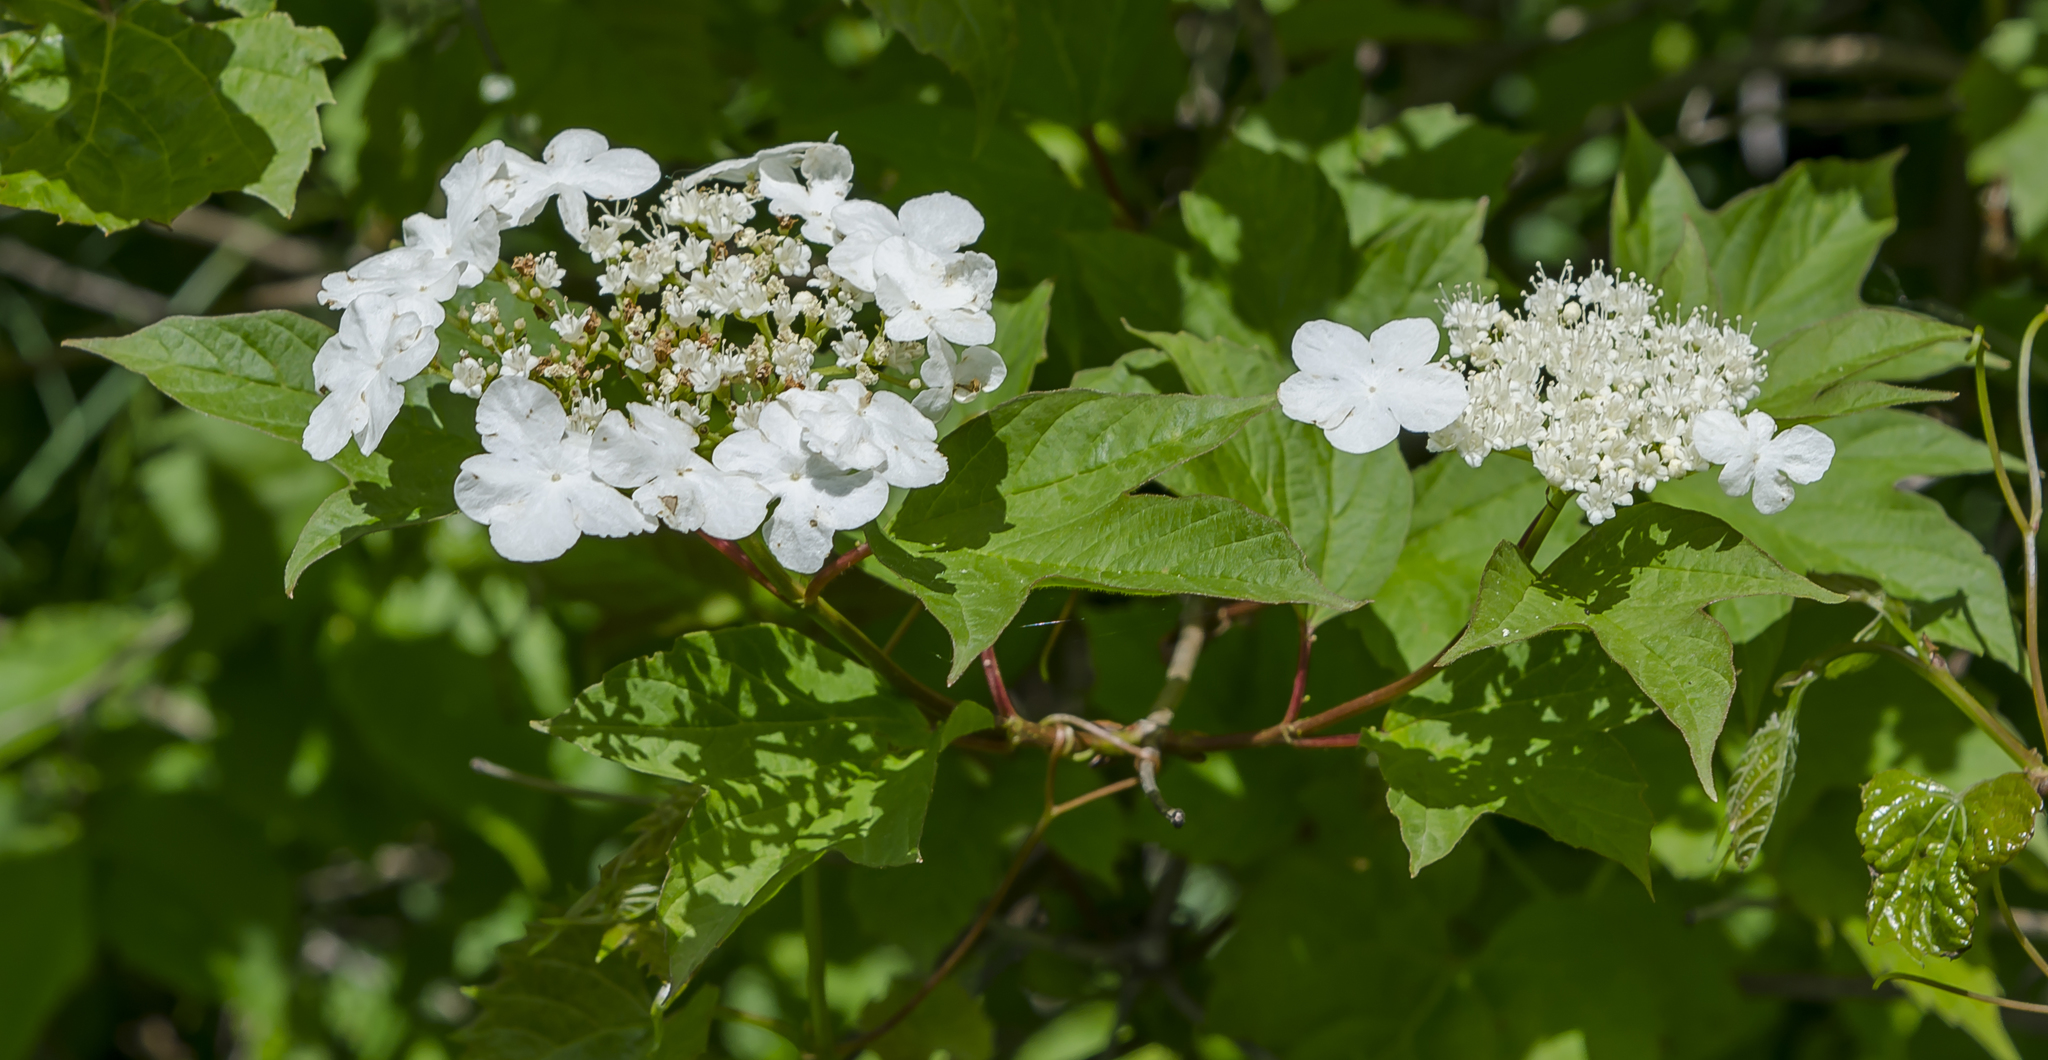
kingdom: Plantae
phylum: Tracheophyta
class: Magnoliopsida
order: Dipsacales
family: Viburnaceae
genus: Viburnum
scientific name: Viburnum trilobum
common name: American cranberrybush
